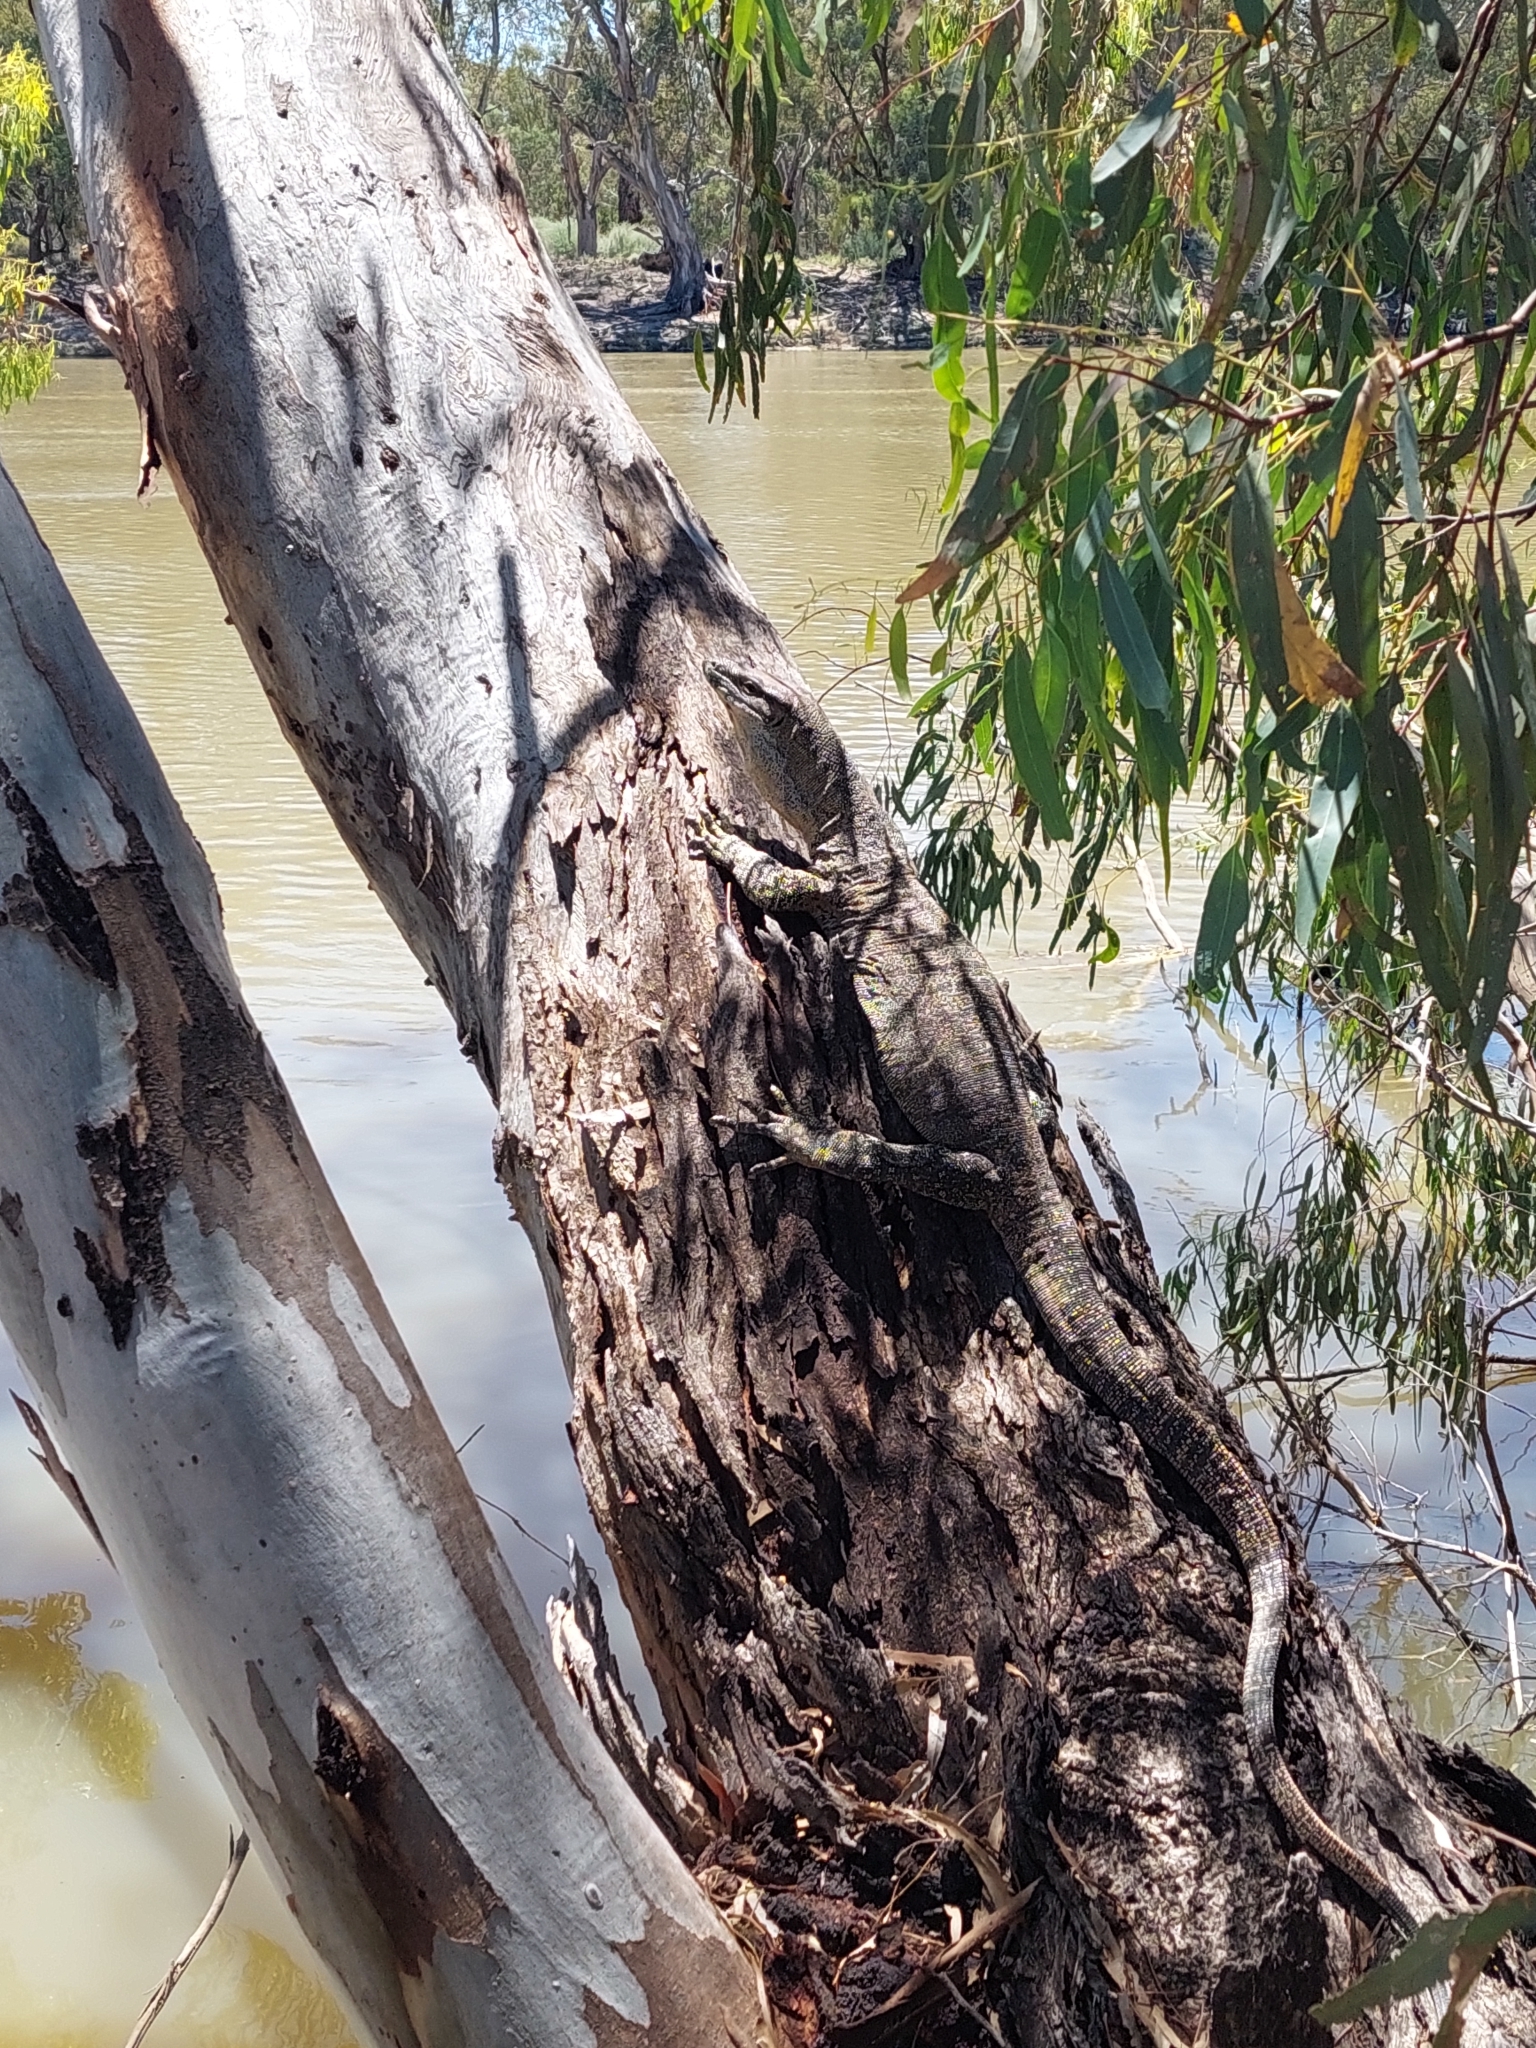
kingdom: Animalia
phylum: Chordata
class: Squamata
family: Varanidae
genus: Varanus
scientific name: Varanus varius
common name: Lace monitor
